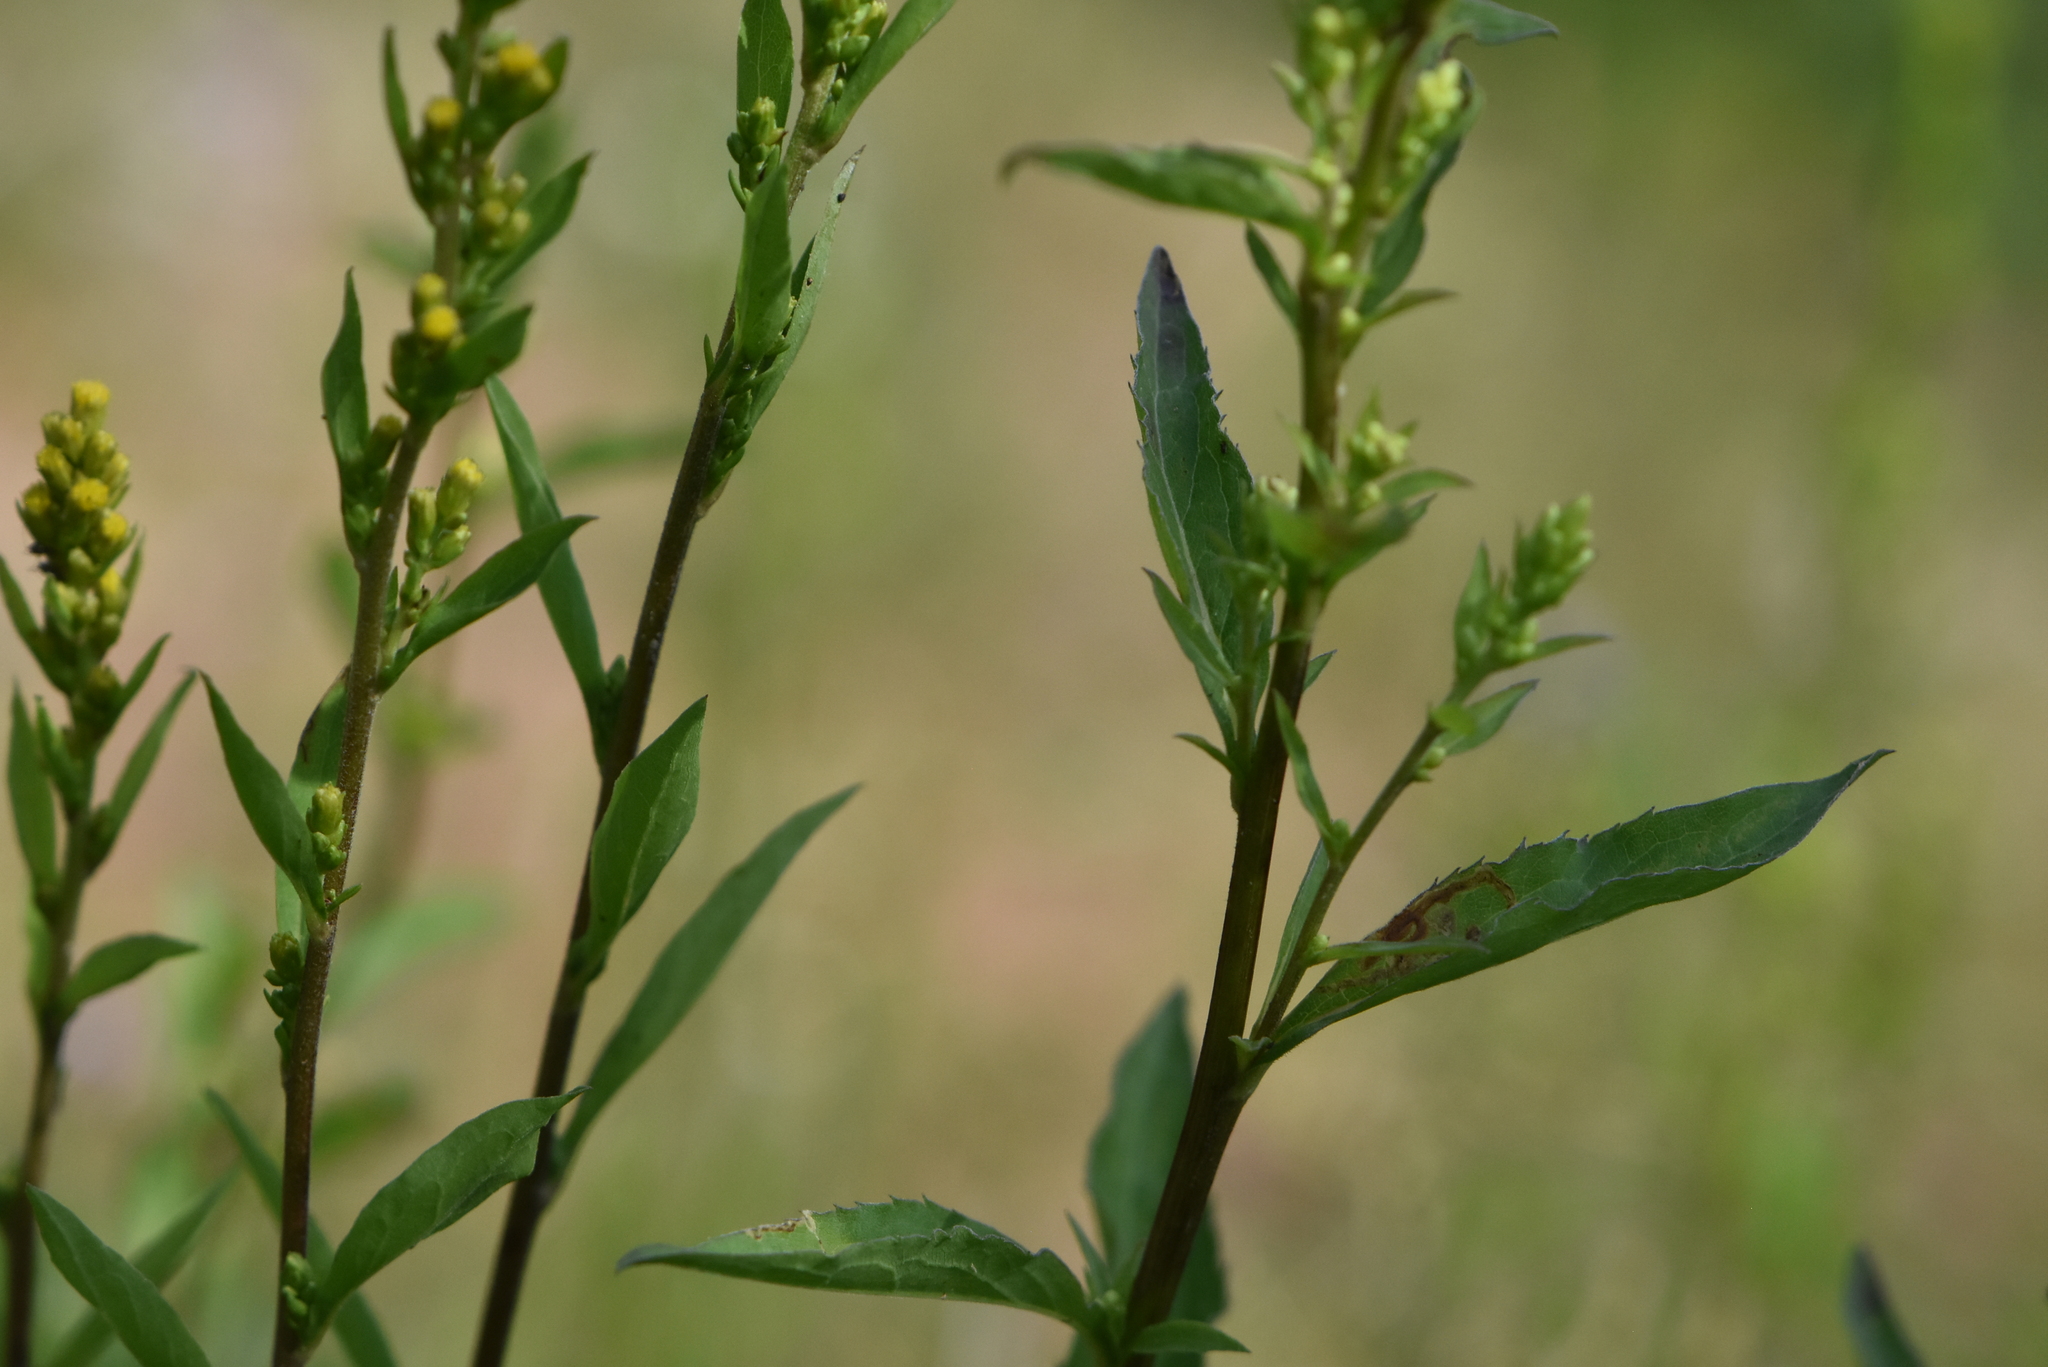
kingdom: Plantae
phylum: Tracheophyta
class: Magnoliopsida
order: Asterales
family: Asteraceae
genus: Solidago
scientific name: Solidago virgaurea
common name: Goldenrod
